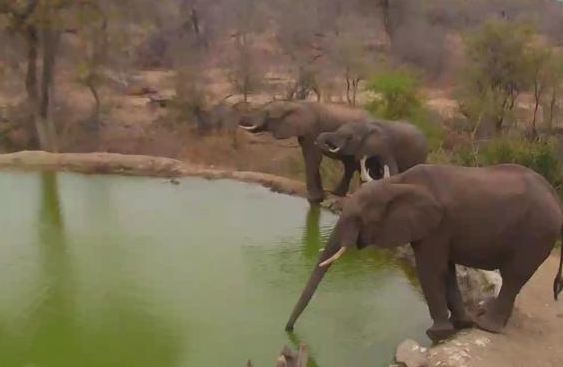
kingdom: Animalia
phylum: Chordata
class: Mammalia
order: Proboscidea
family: Elephantidae
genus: Loxodonta
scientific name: Loxodonta africana
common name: African elephant
